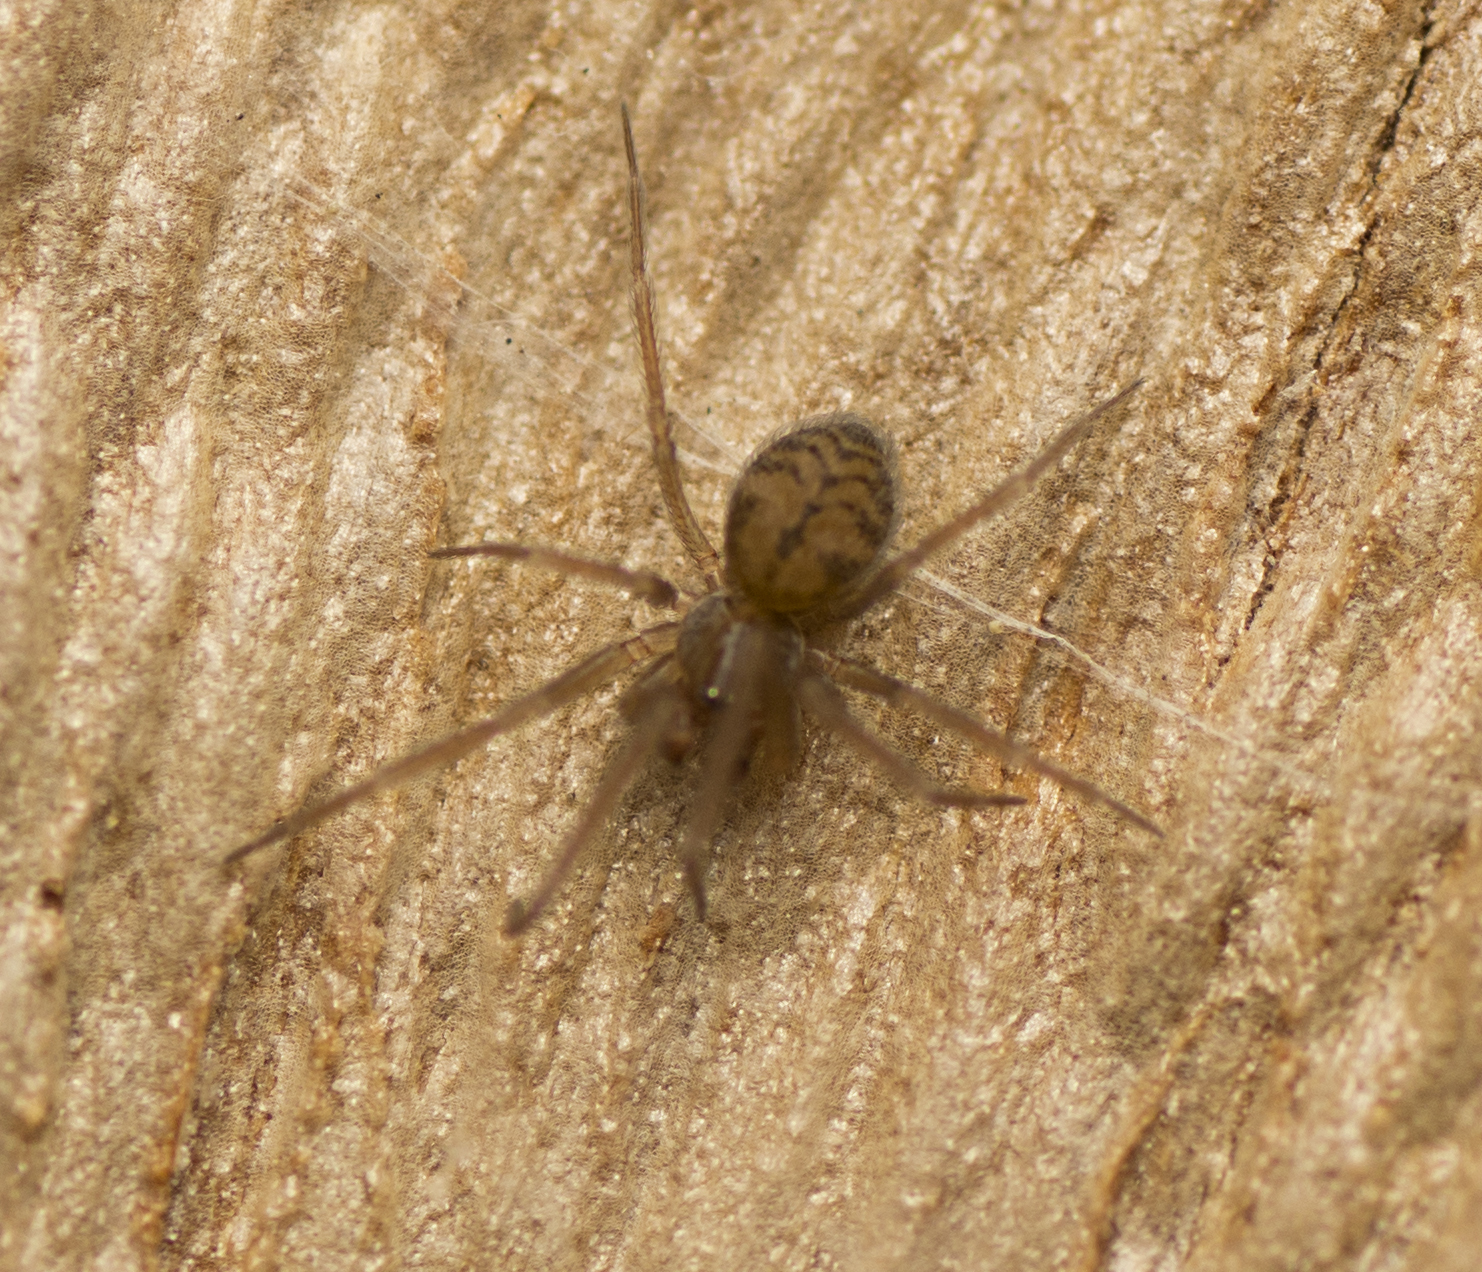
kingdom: Animalia
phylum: Arthropoda
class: Arachnida
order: Araneae
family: Hahniidae
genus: Scotospilus
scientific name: Scotospilus ampullarius
